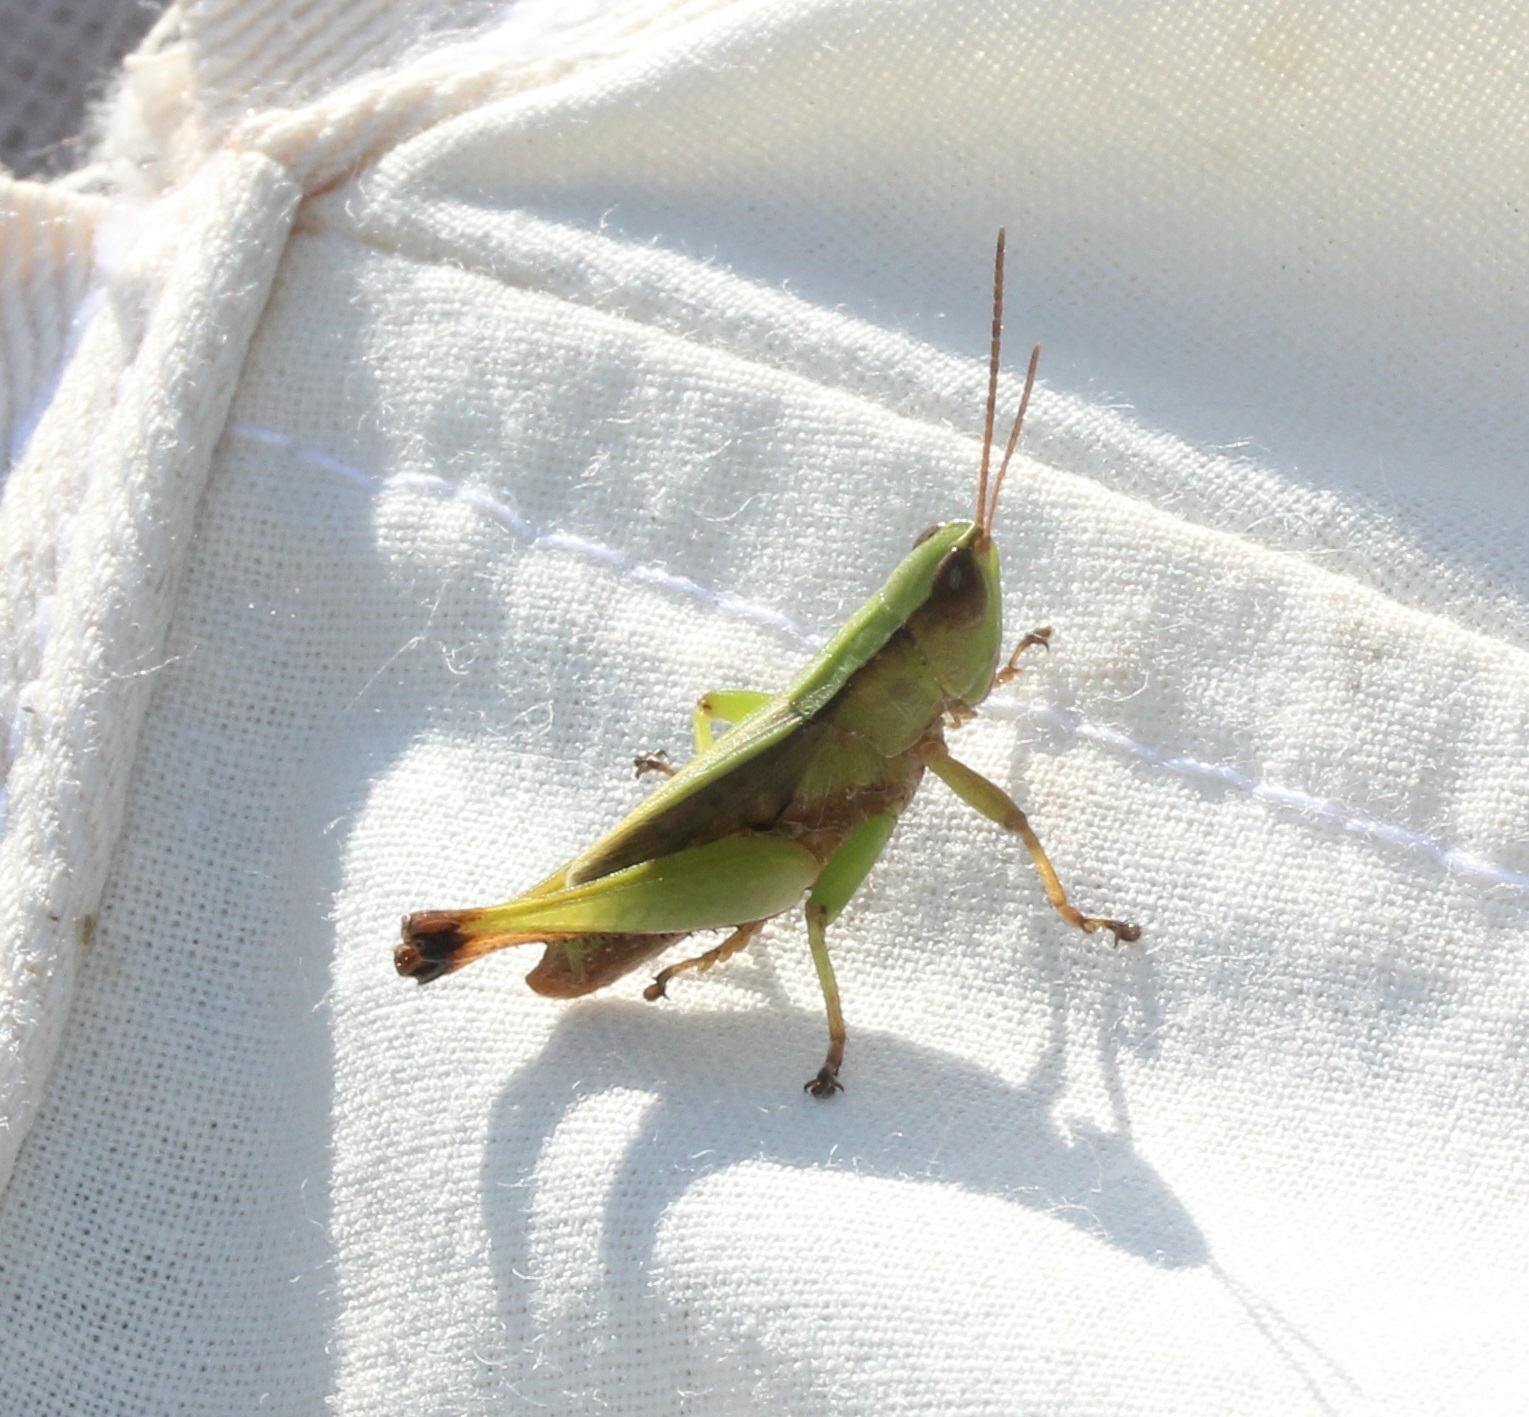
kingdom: Animalia
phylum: Arthropoda
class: Insecta
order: Orthoptera
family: Acrididae
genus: Dichromorpha
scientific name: Dichromorpha viridis
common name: Short-winged green grasshopper
